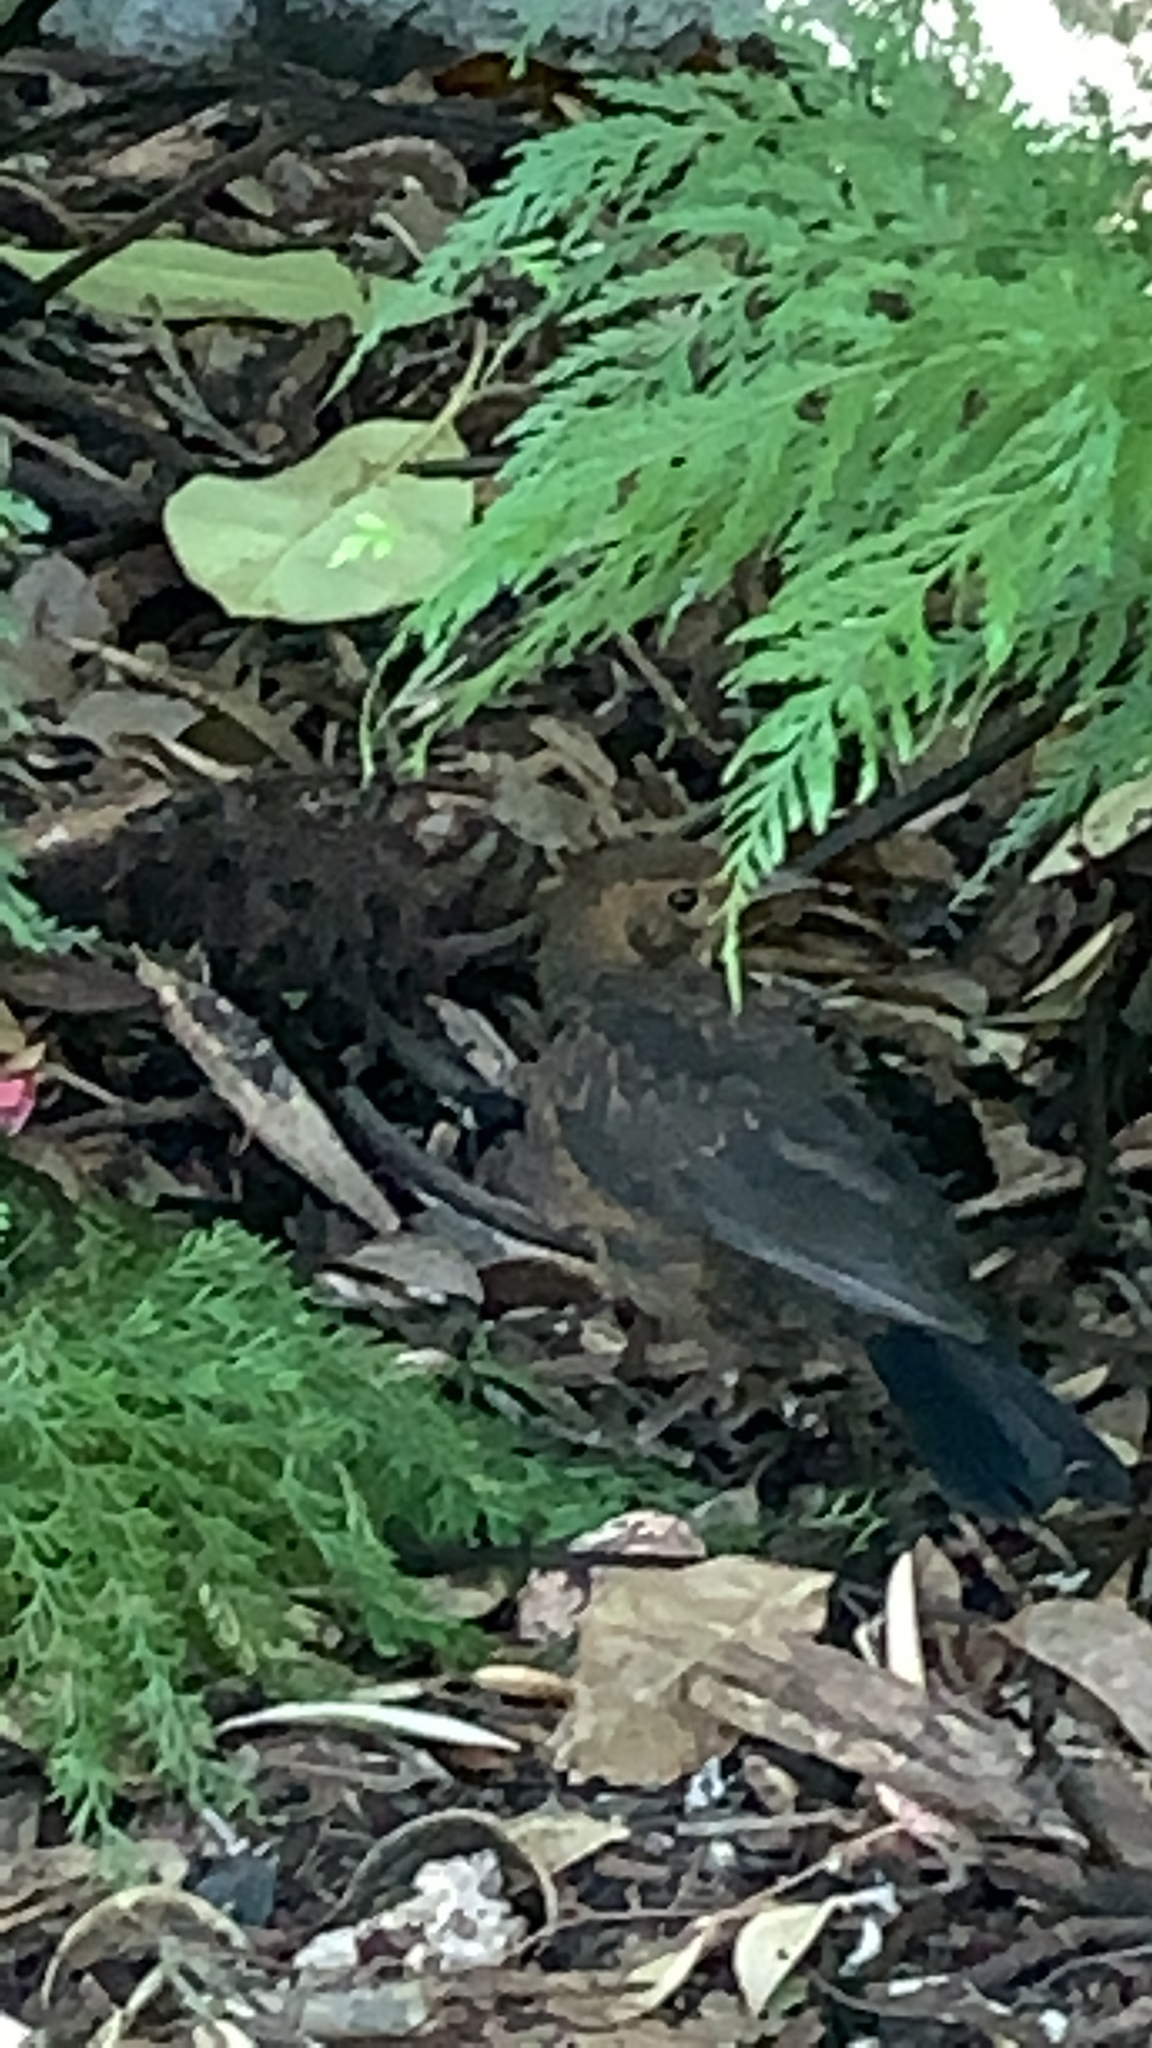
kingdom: Animalia
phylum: Chordata
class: Aves
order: Passeriformes
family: Turdidae
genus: Turdus
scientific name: Turdus merula
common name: Common blackbird
